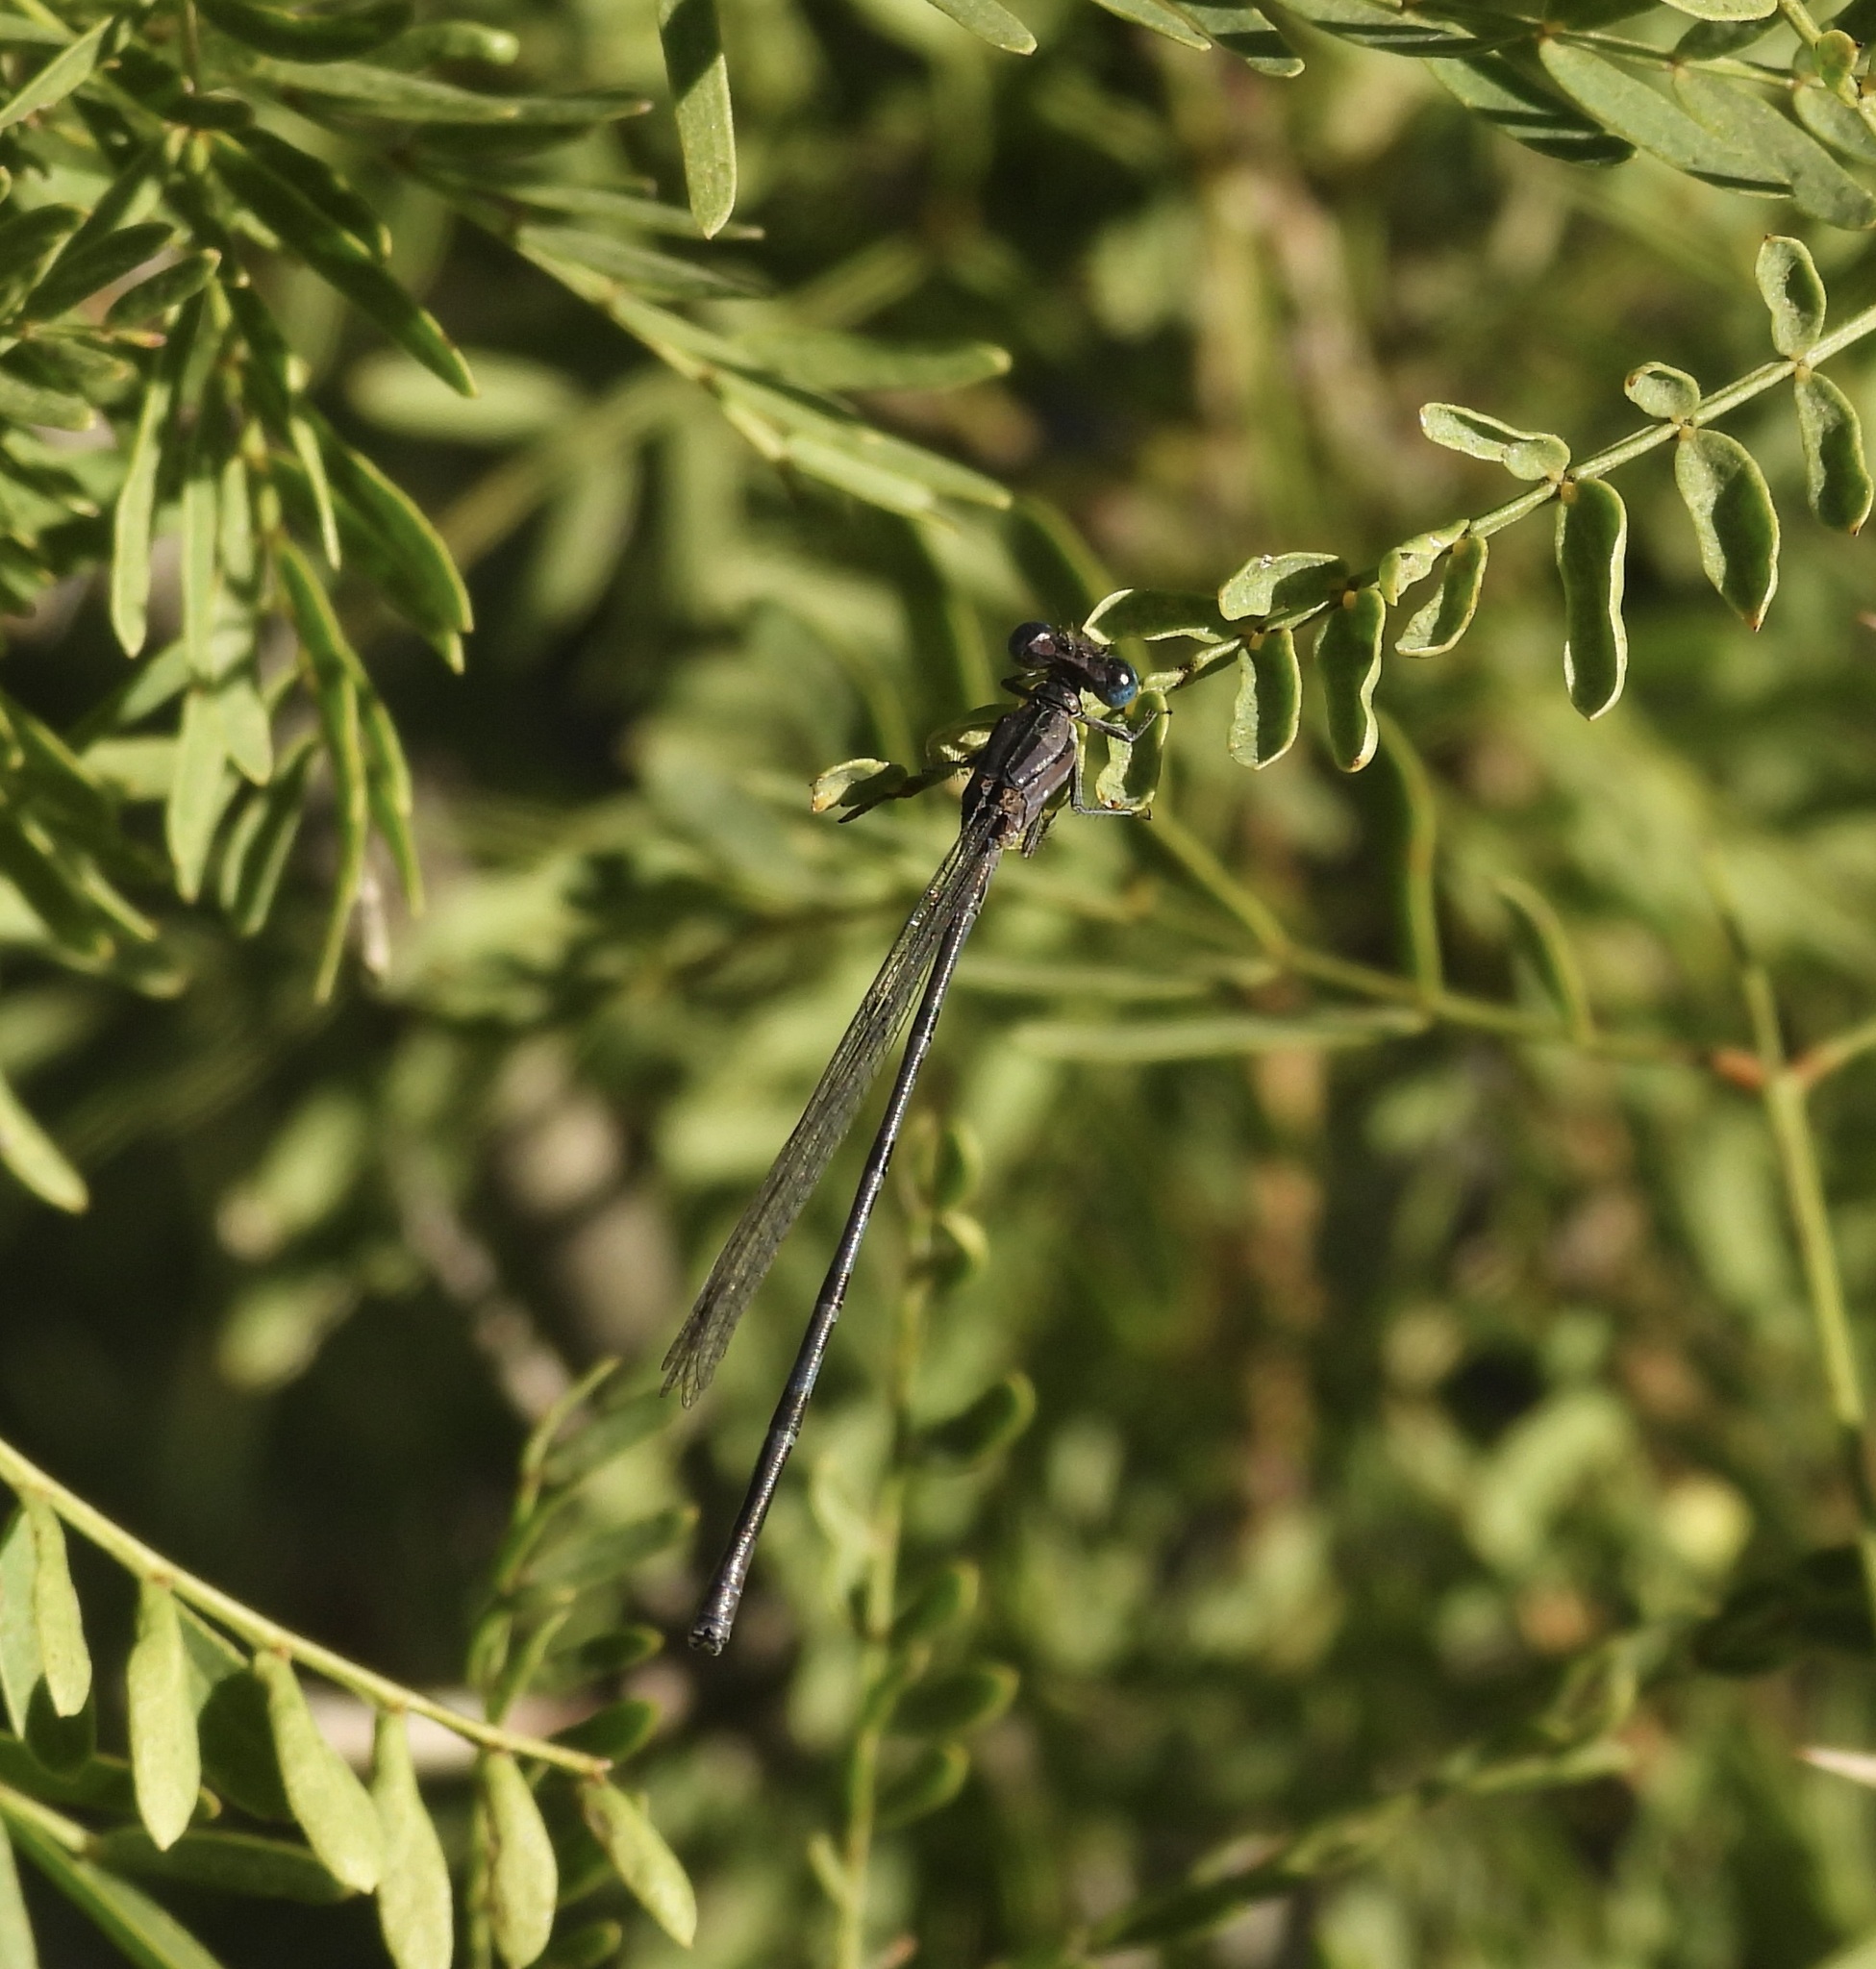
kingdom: Animalia
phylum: Arthropoda
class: Insecta
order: Odonata
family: Coenagrionidae
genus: Argia
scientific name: Argia funebris
